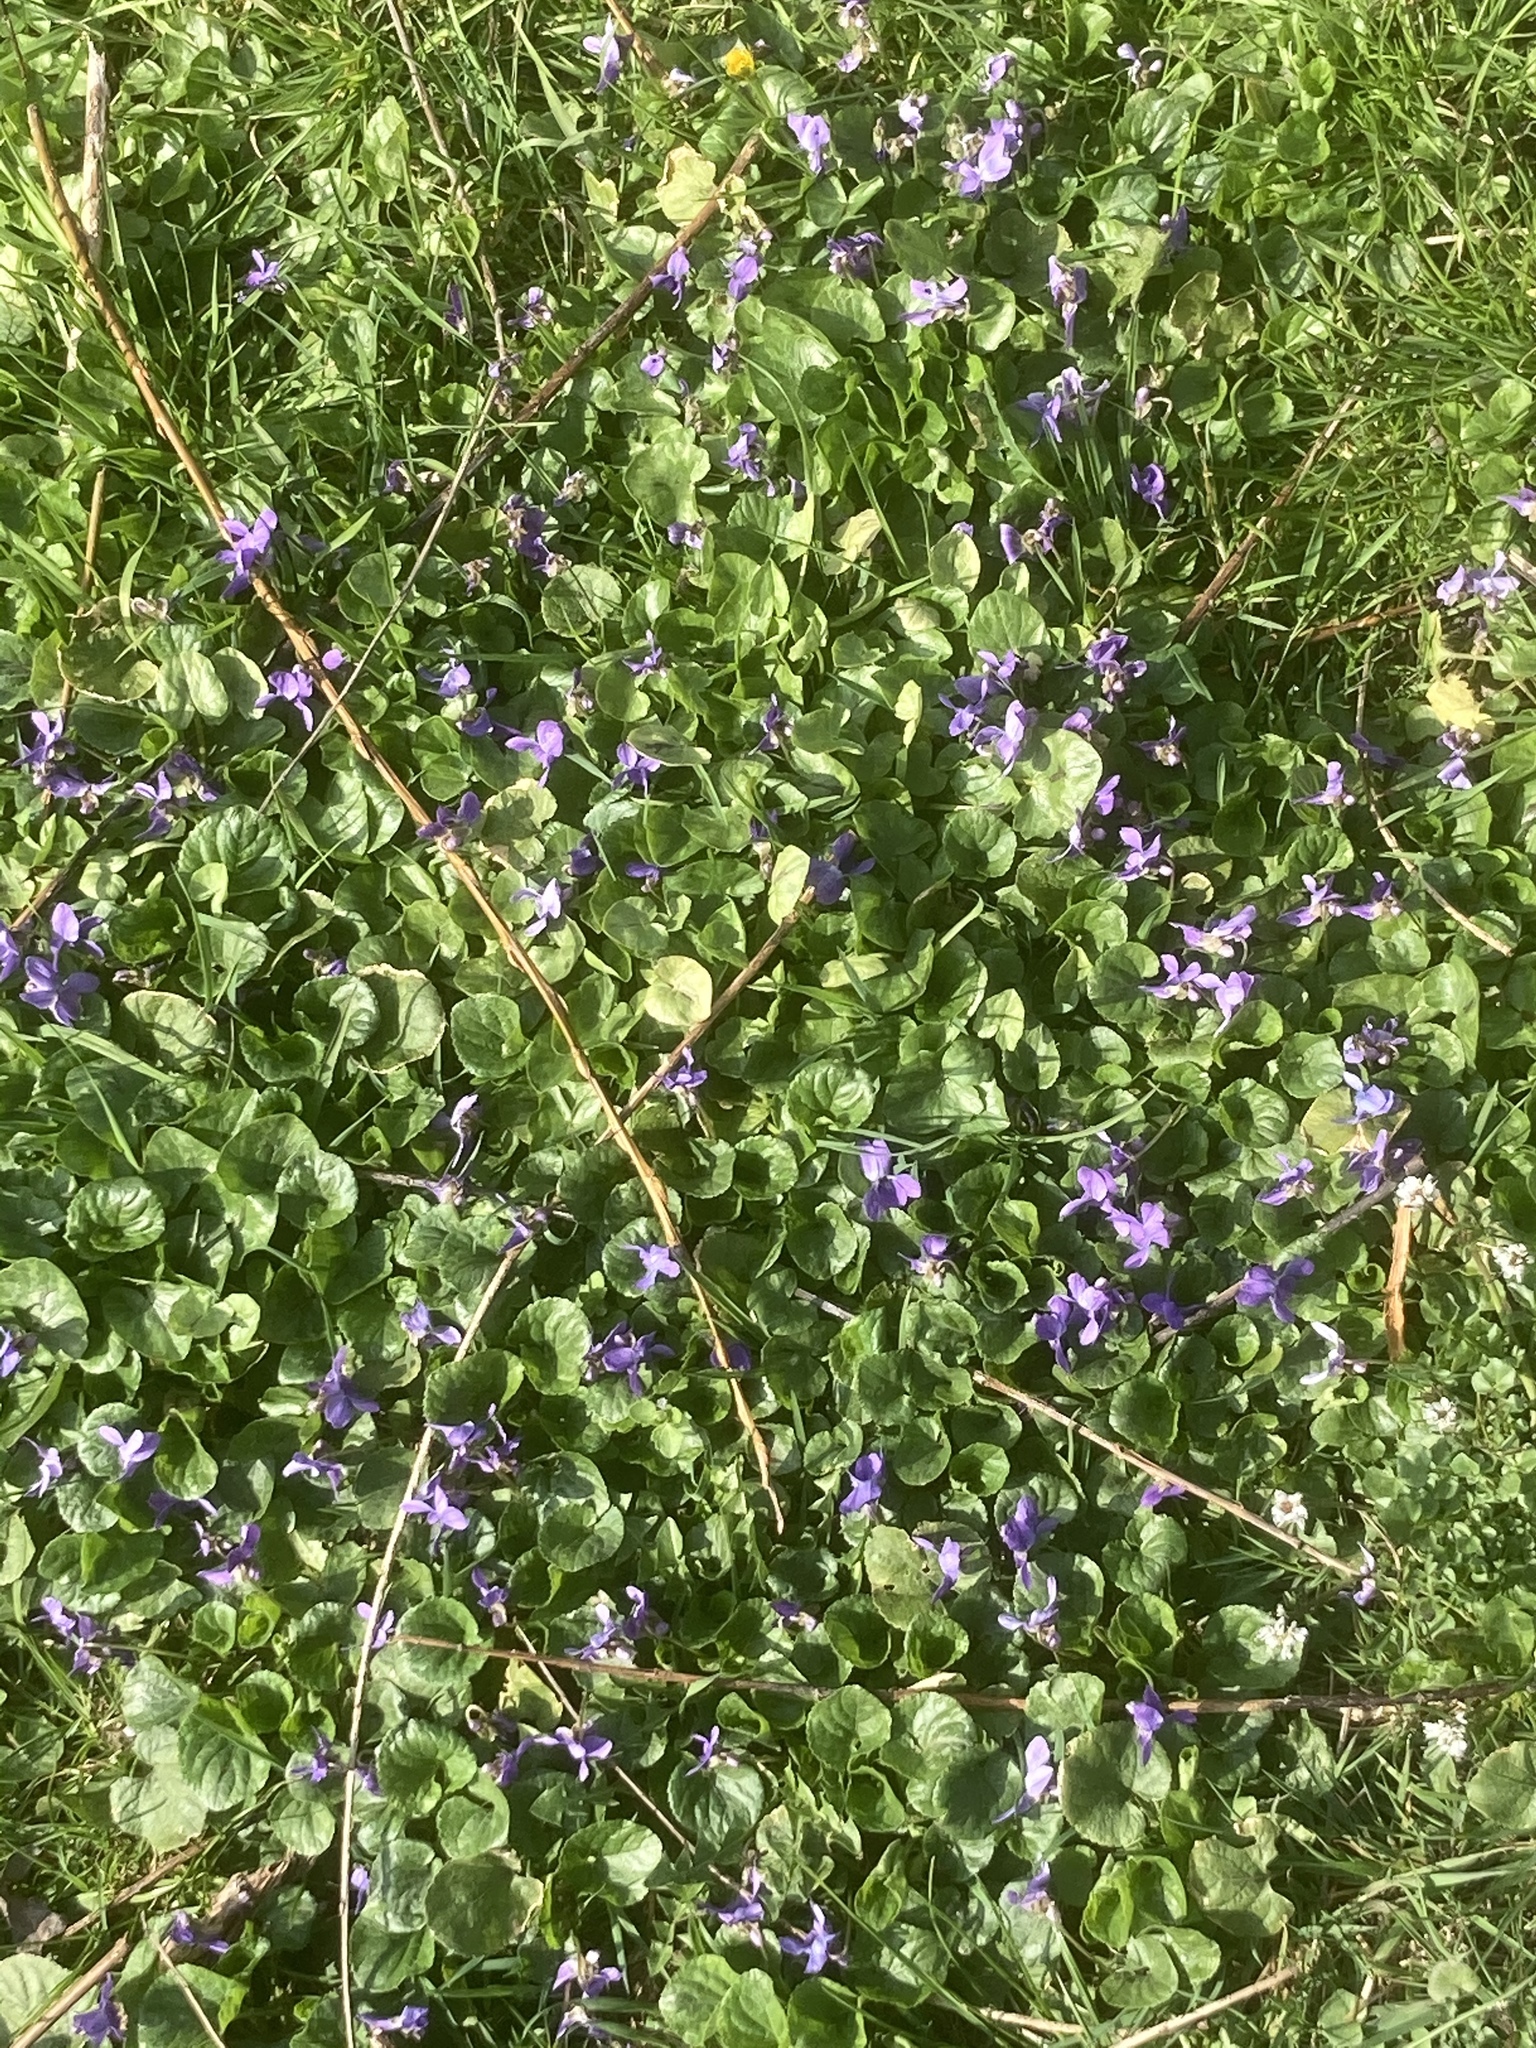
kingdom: Plantae
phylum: Tracheophyta
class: Magnoliopsida
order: Malpighiales
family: Violaceae
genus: Viola
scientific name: Viola odorata
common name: Sweet violet
